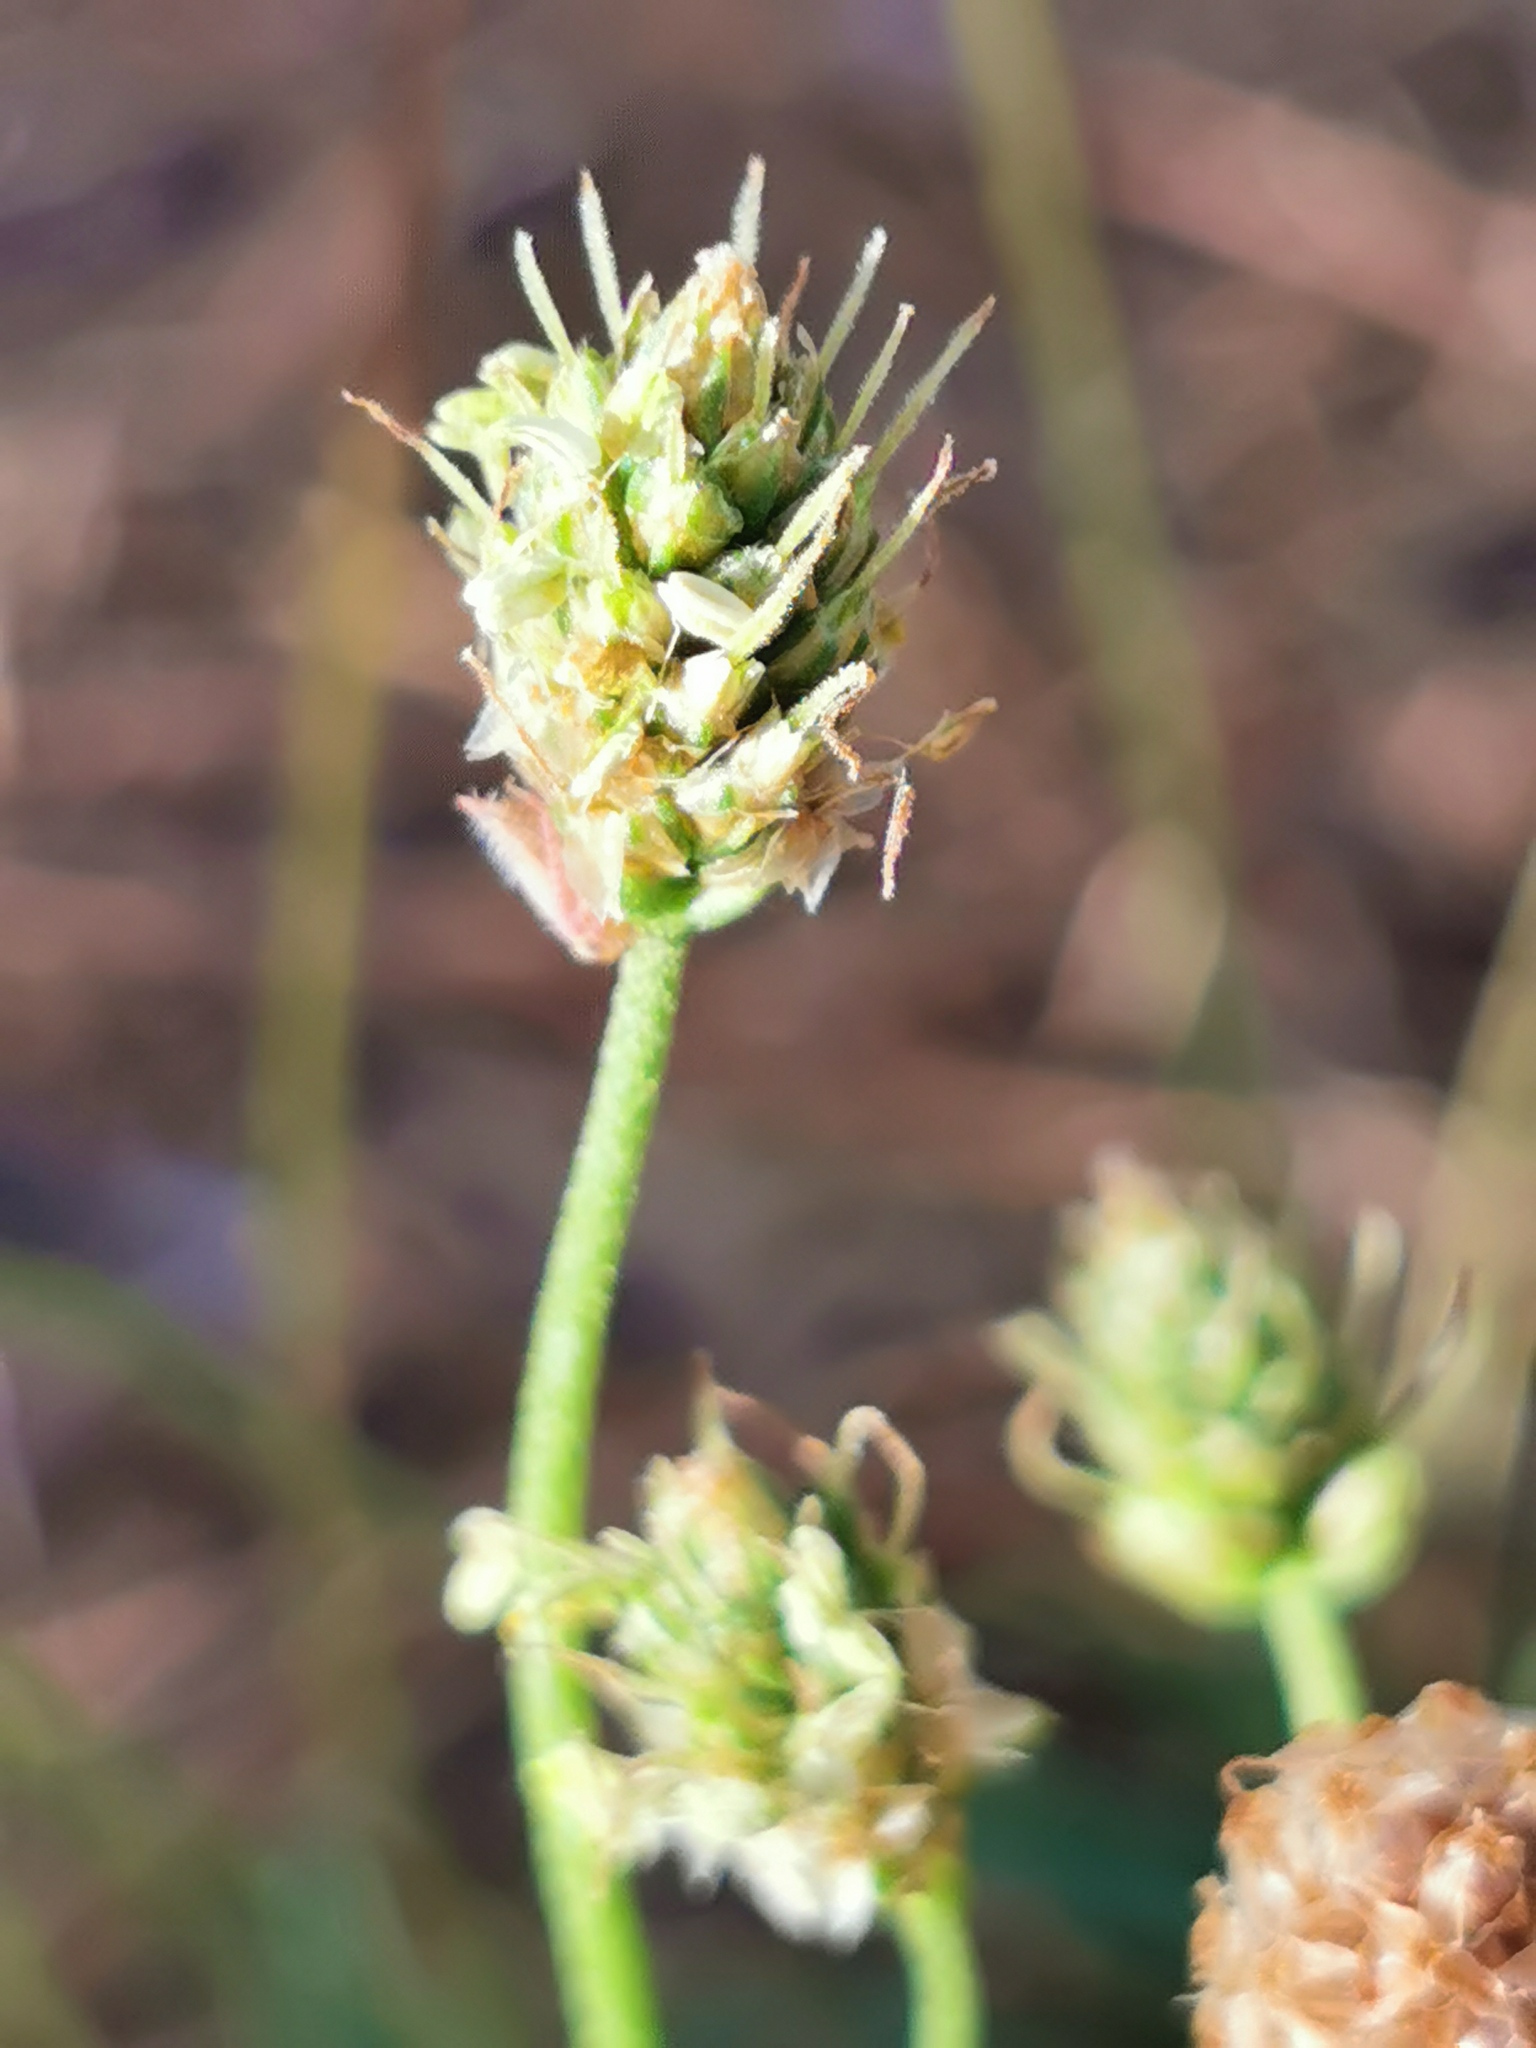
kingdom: Plantae
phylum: Tracheophyta
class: Magnoliopsida
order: Lamiales
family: Plantaginaceae
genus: Plantago
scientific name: Plantago lanceolata
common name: Ribwort plantain
